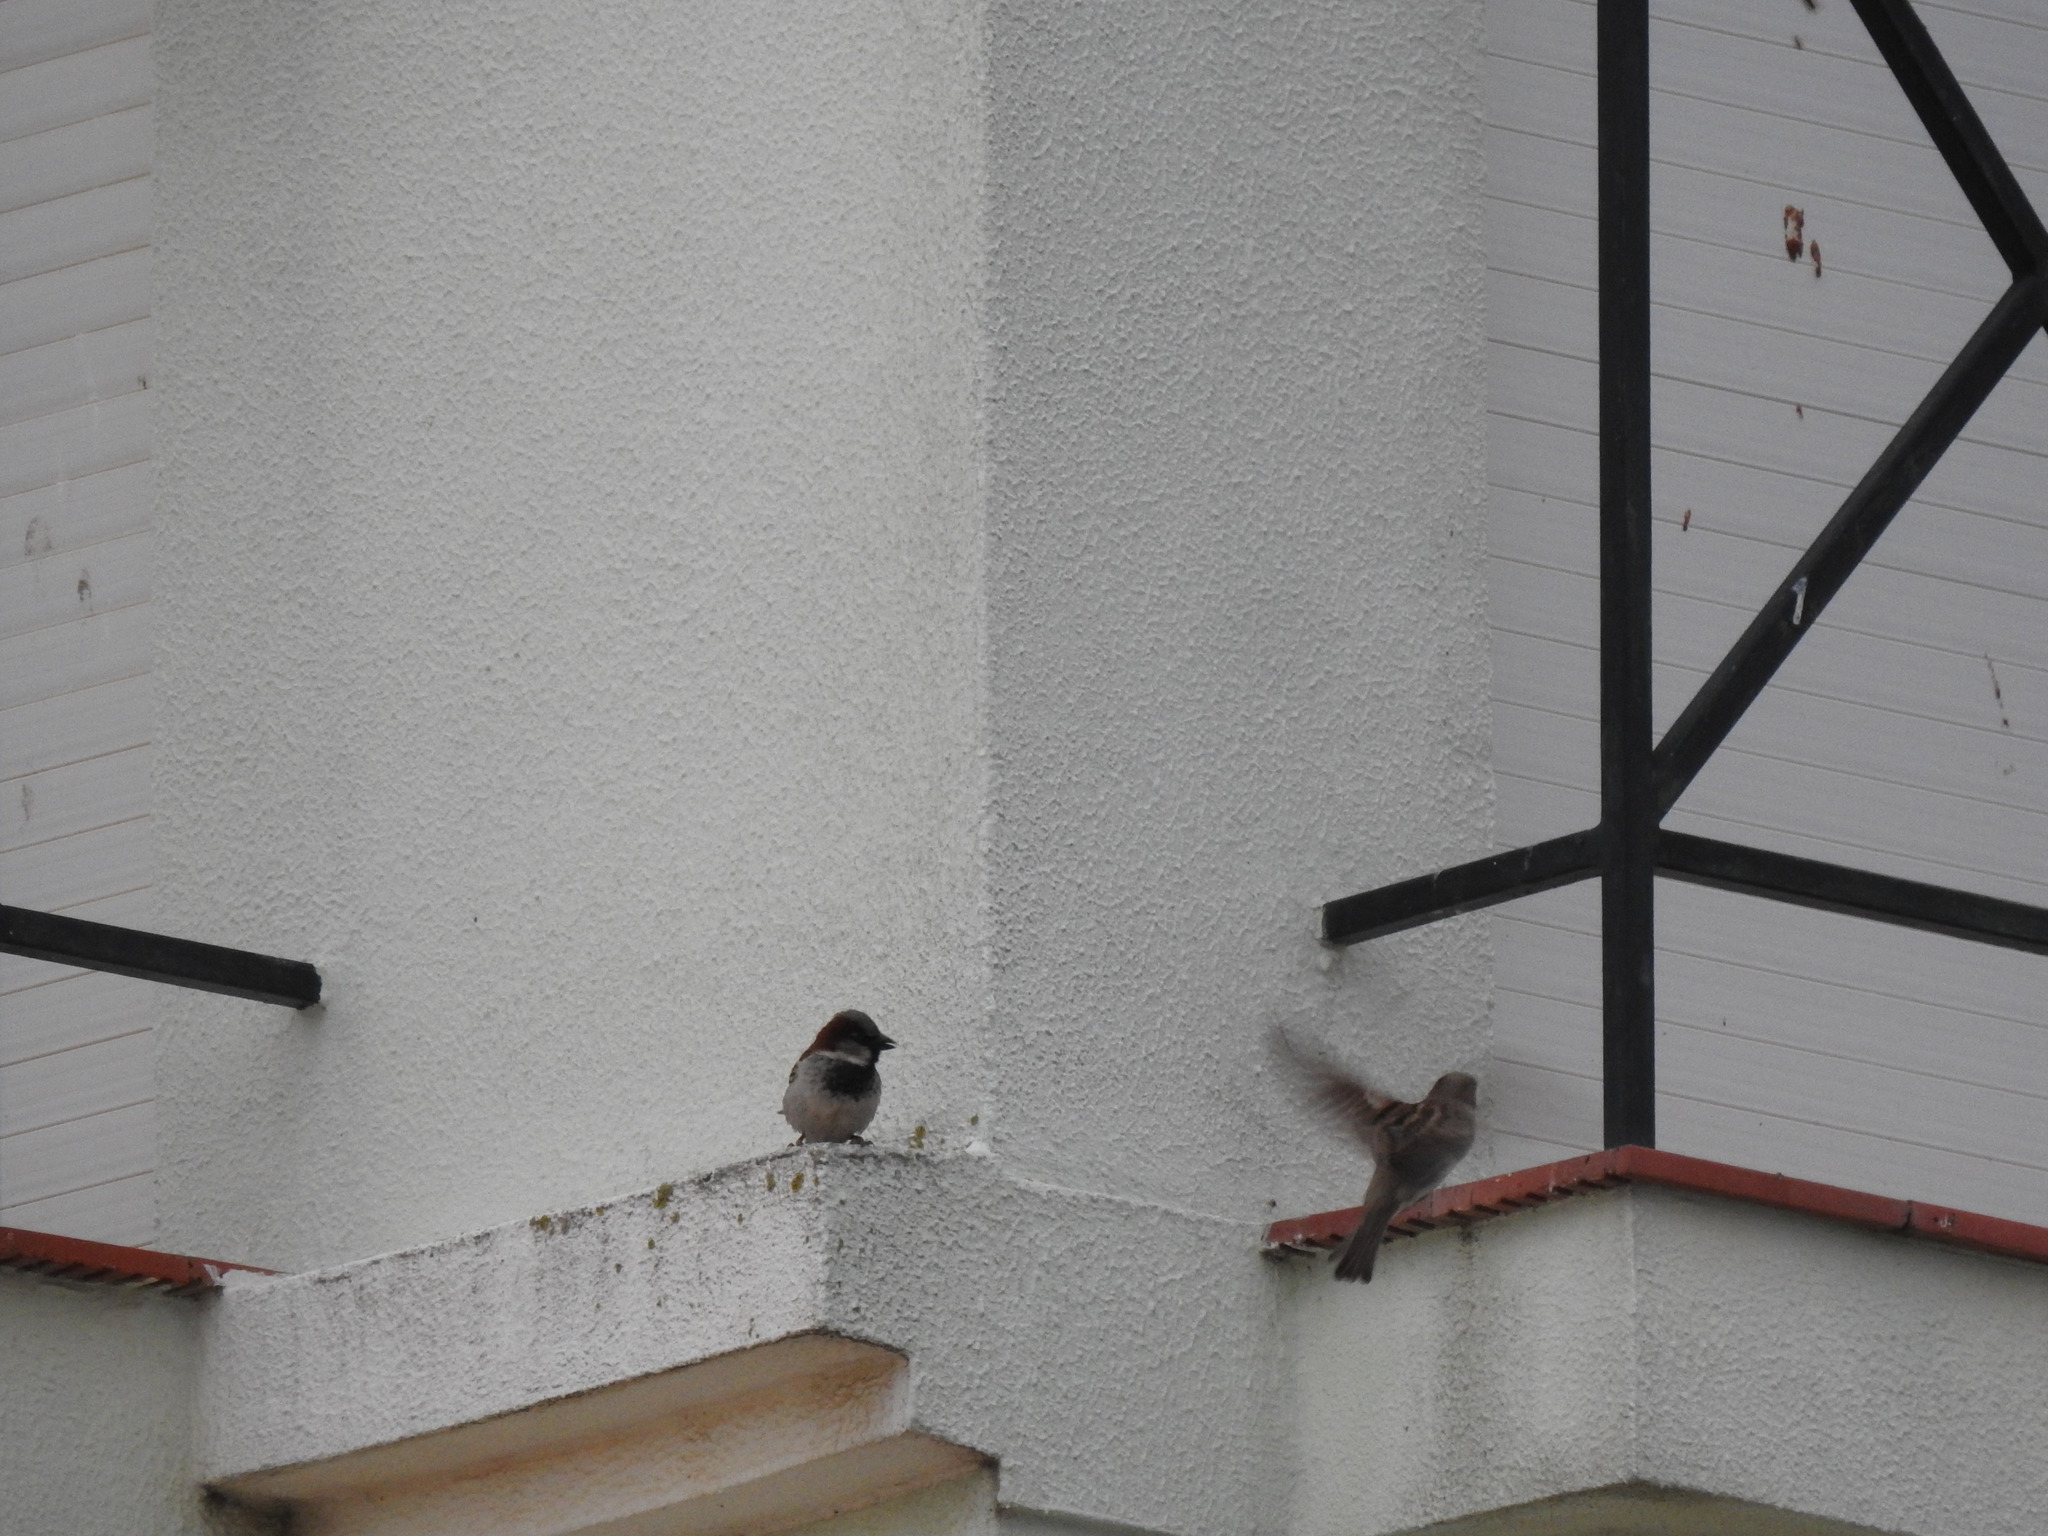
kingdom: Animalia
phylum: Chordata
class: Aves
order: Passeriformes
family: Passeridae
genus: Passer
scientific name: Passer domesticus
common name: House sparrow
